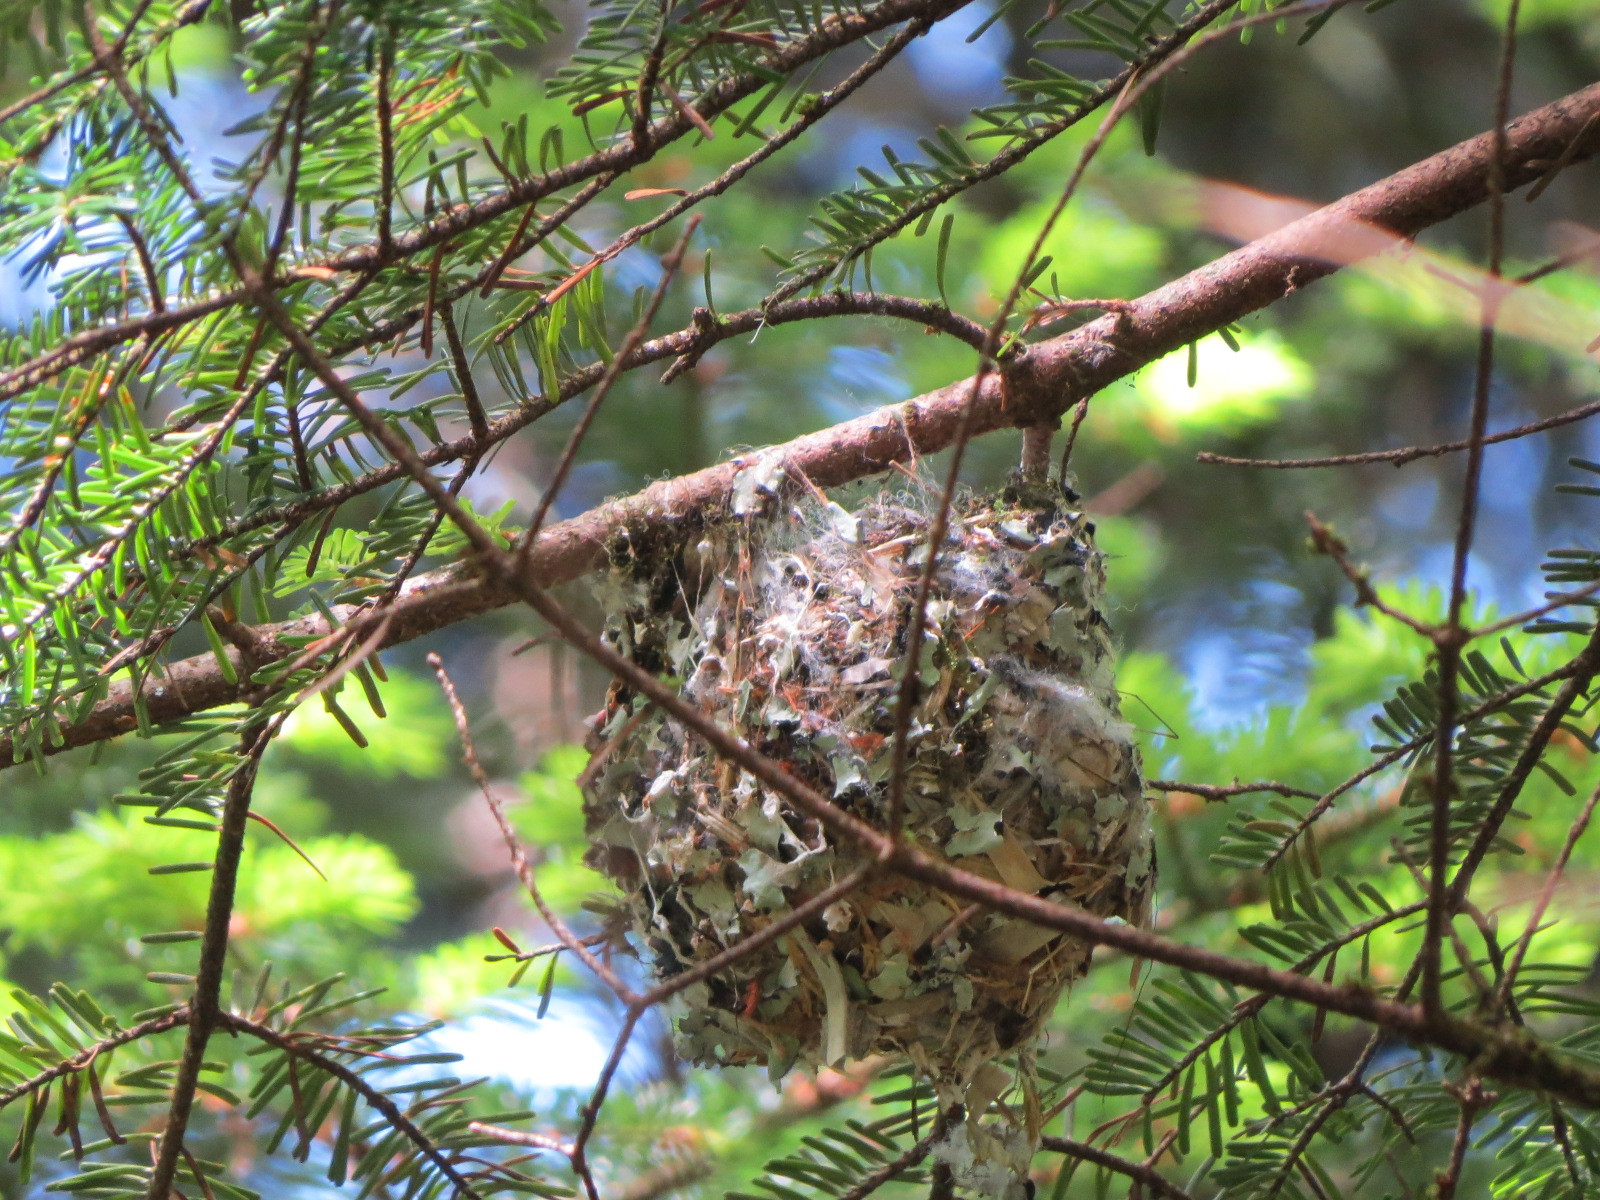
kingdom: Animalia
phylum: Chordata
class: Aves
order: Passeriformes
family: Vireonidae
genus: Vireo
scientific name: Vireo solitarius
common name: Blue-headed vireo
